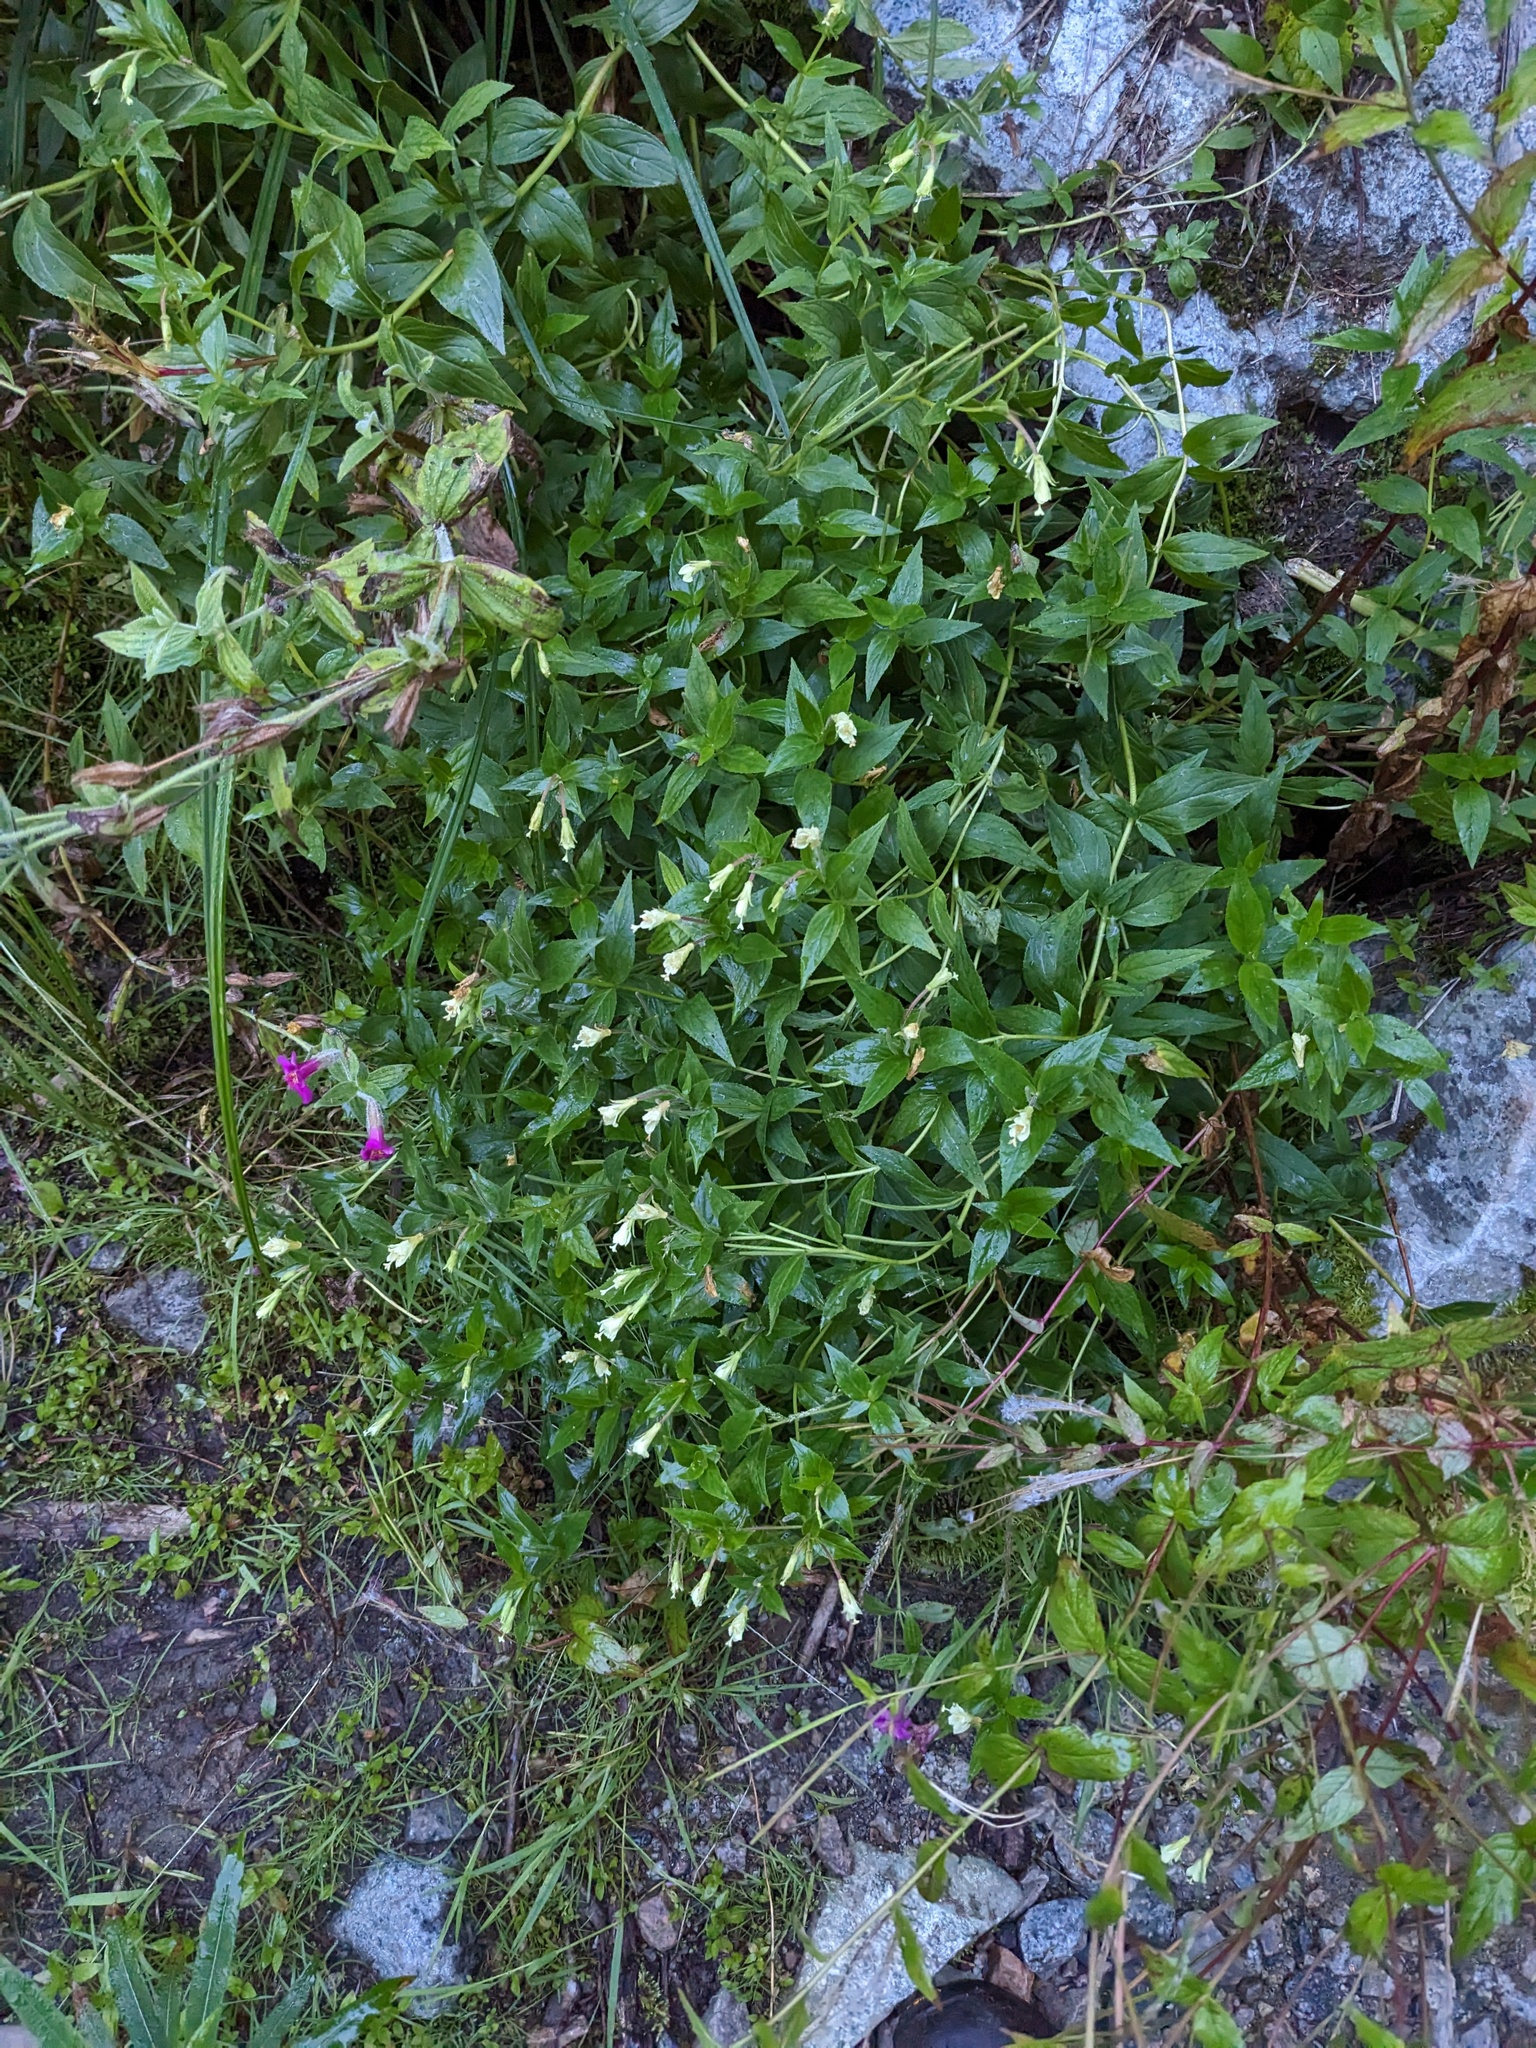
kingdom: Plantae
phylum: Tracheophyta
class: Magnoliopsida
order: Myrtales
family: Onagraceae
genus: Epilobium
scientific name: Epilobium luteum
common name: Yellow willowherb
